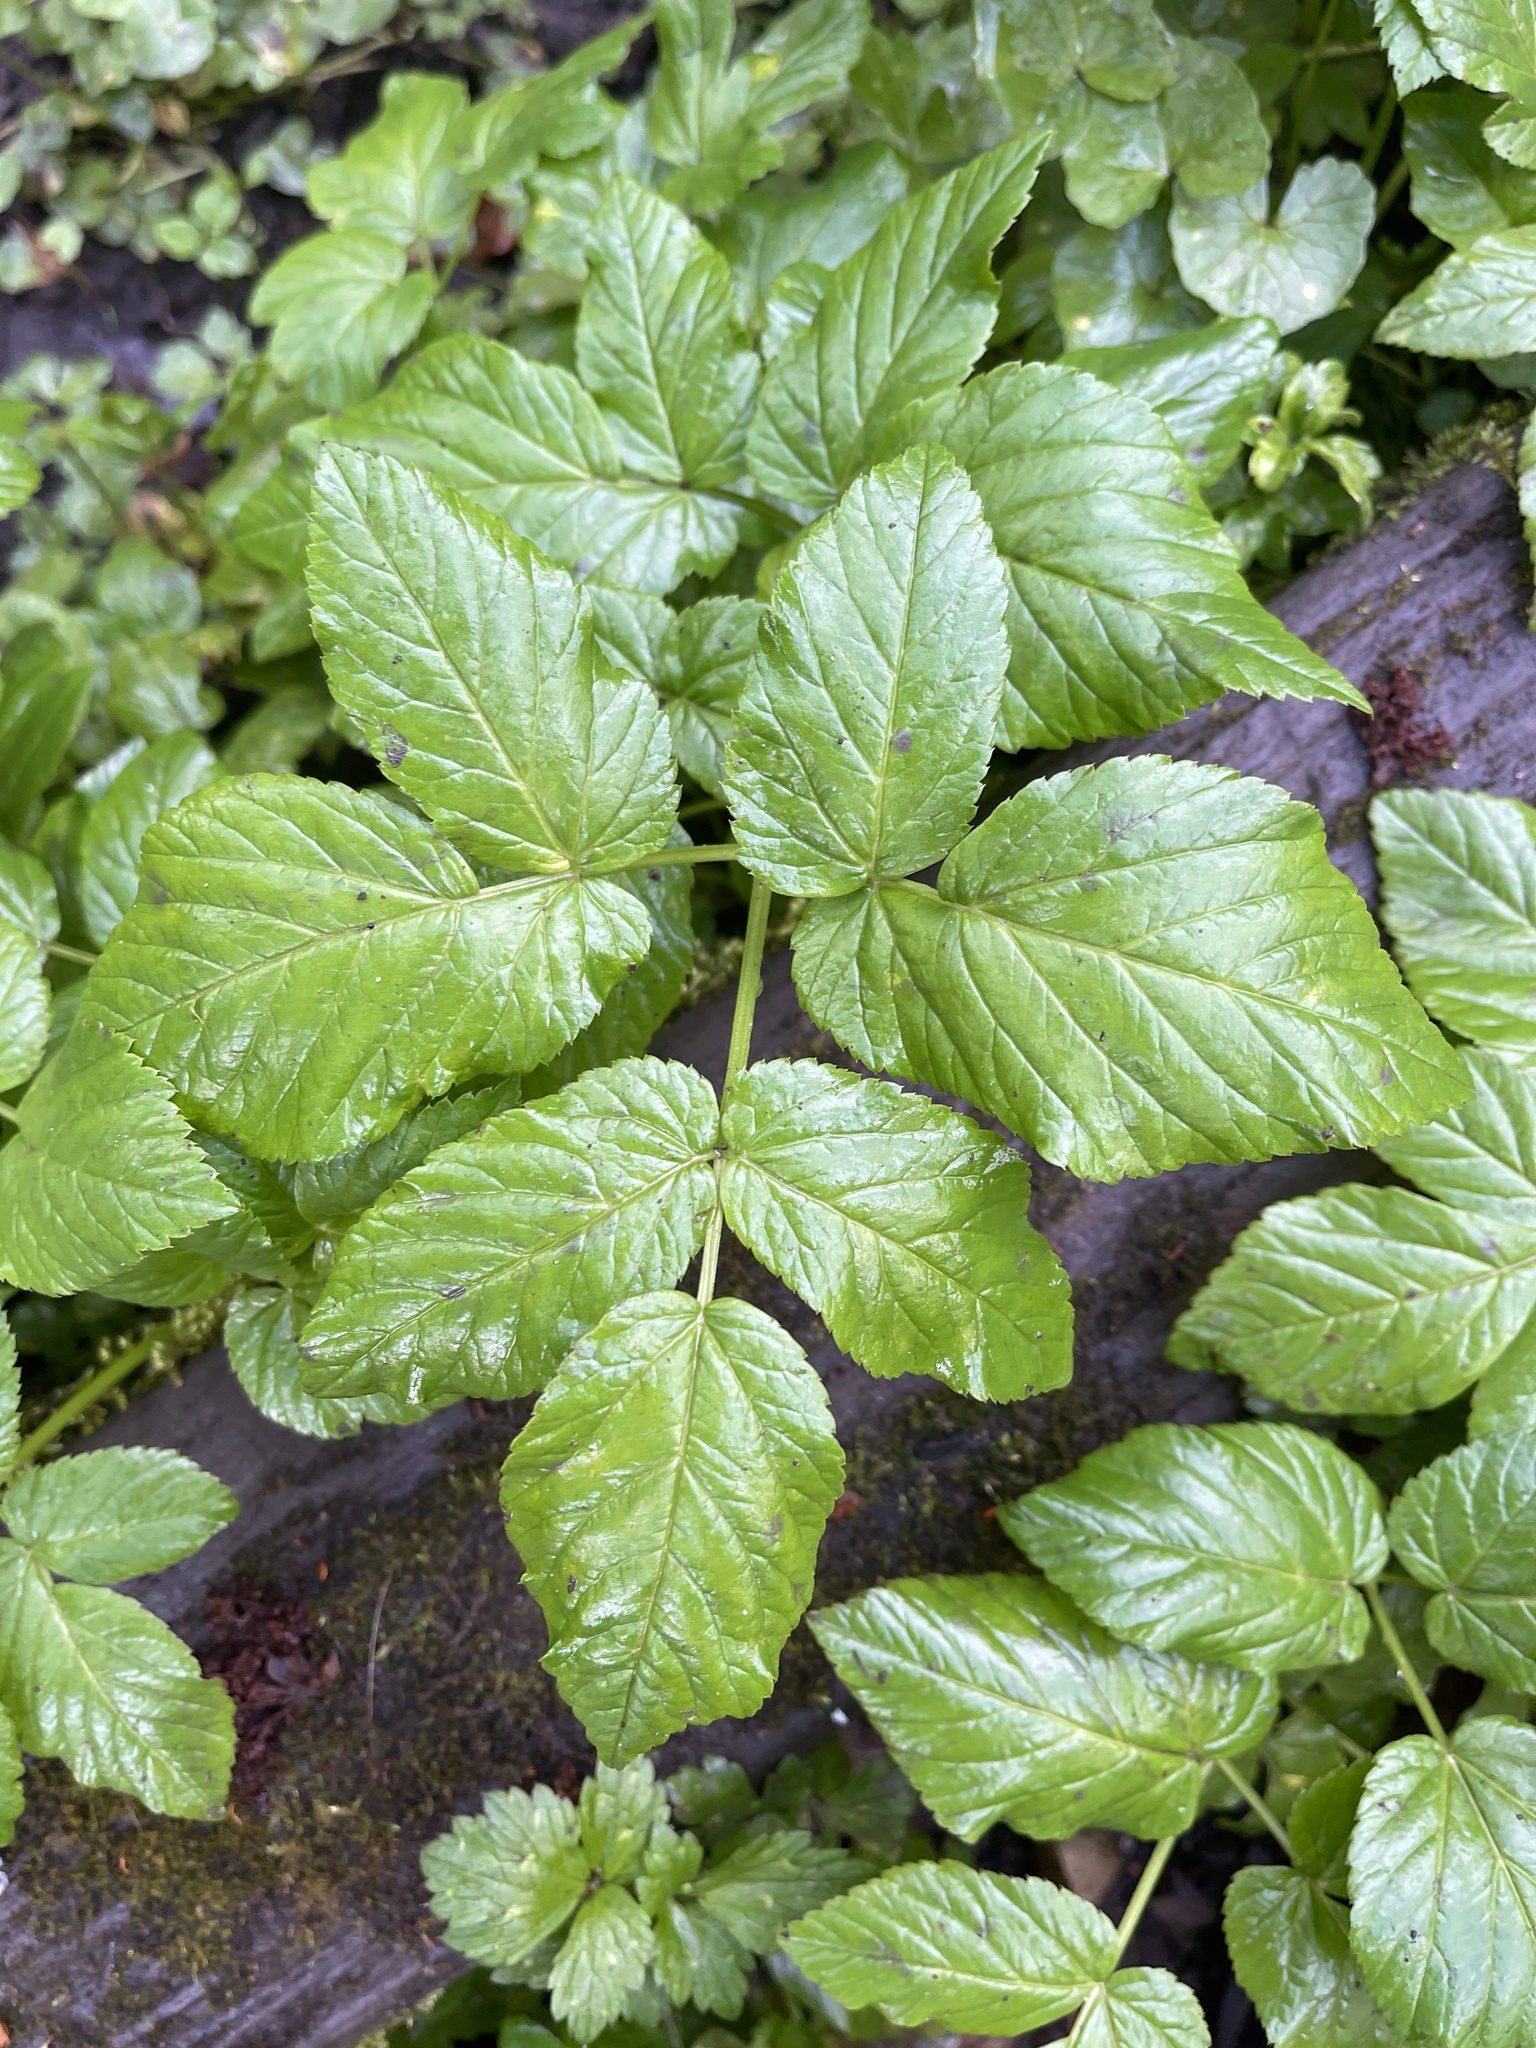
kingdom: Plantae
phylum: Tracheophyta
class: Magnoliopsida
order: Apiales
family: Apiaceae
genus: Aegopodium
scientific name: Aegopodium podagraria
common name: Ground-elder
